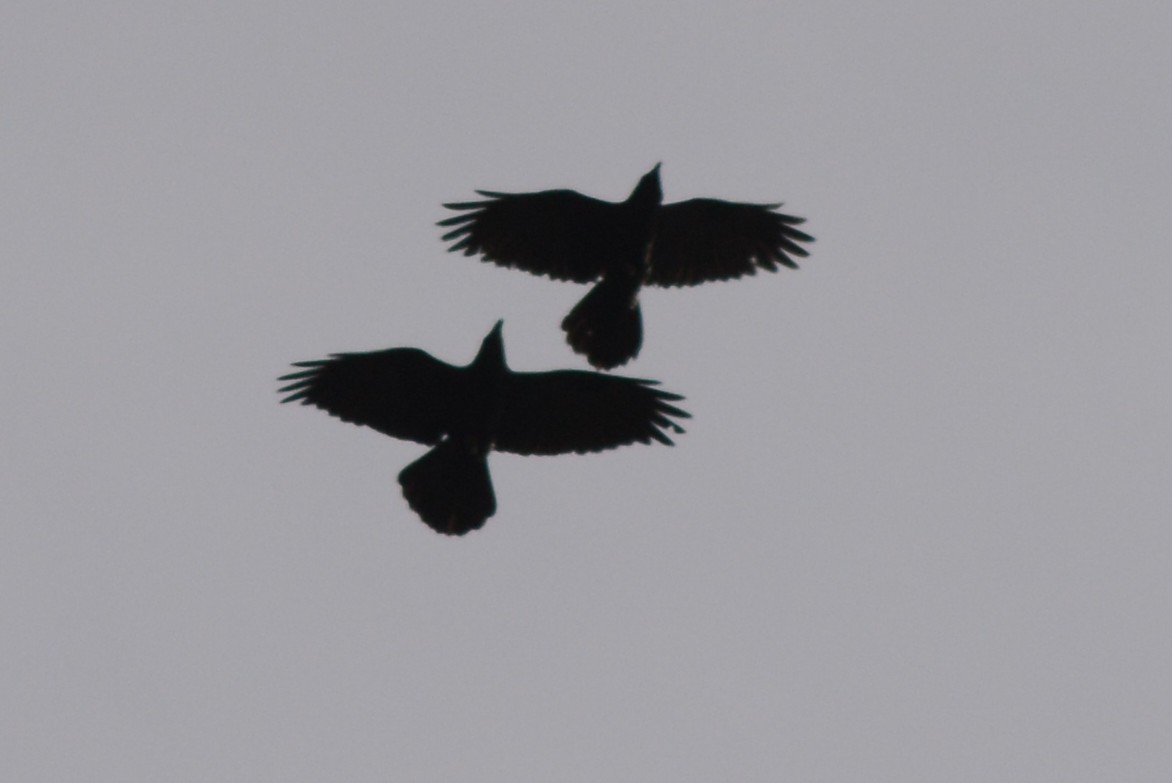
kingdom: Animalia
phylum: Chordata
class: Aves
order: Passeriformes
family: Corvidae
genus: Corvus
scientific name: Corvus corax
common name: Common raven
